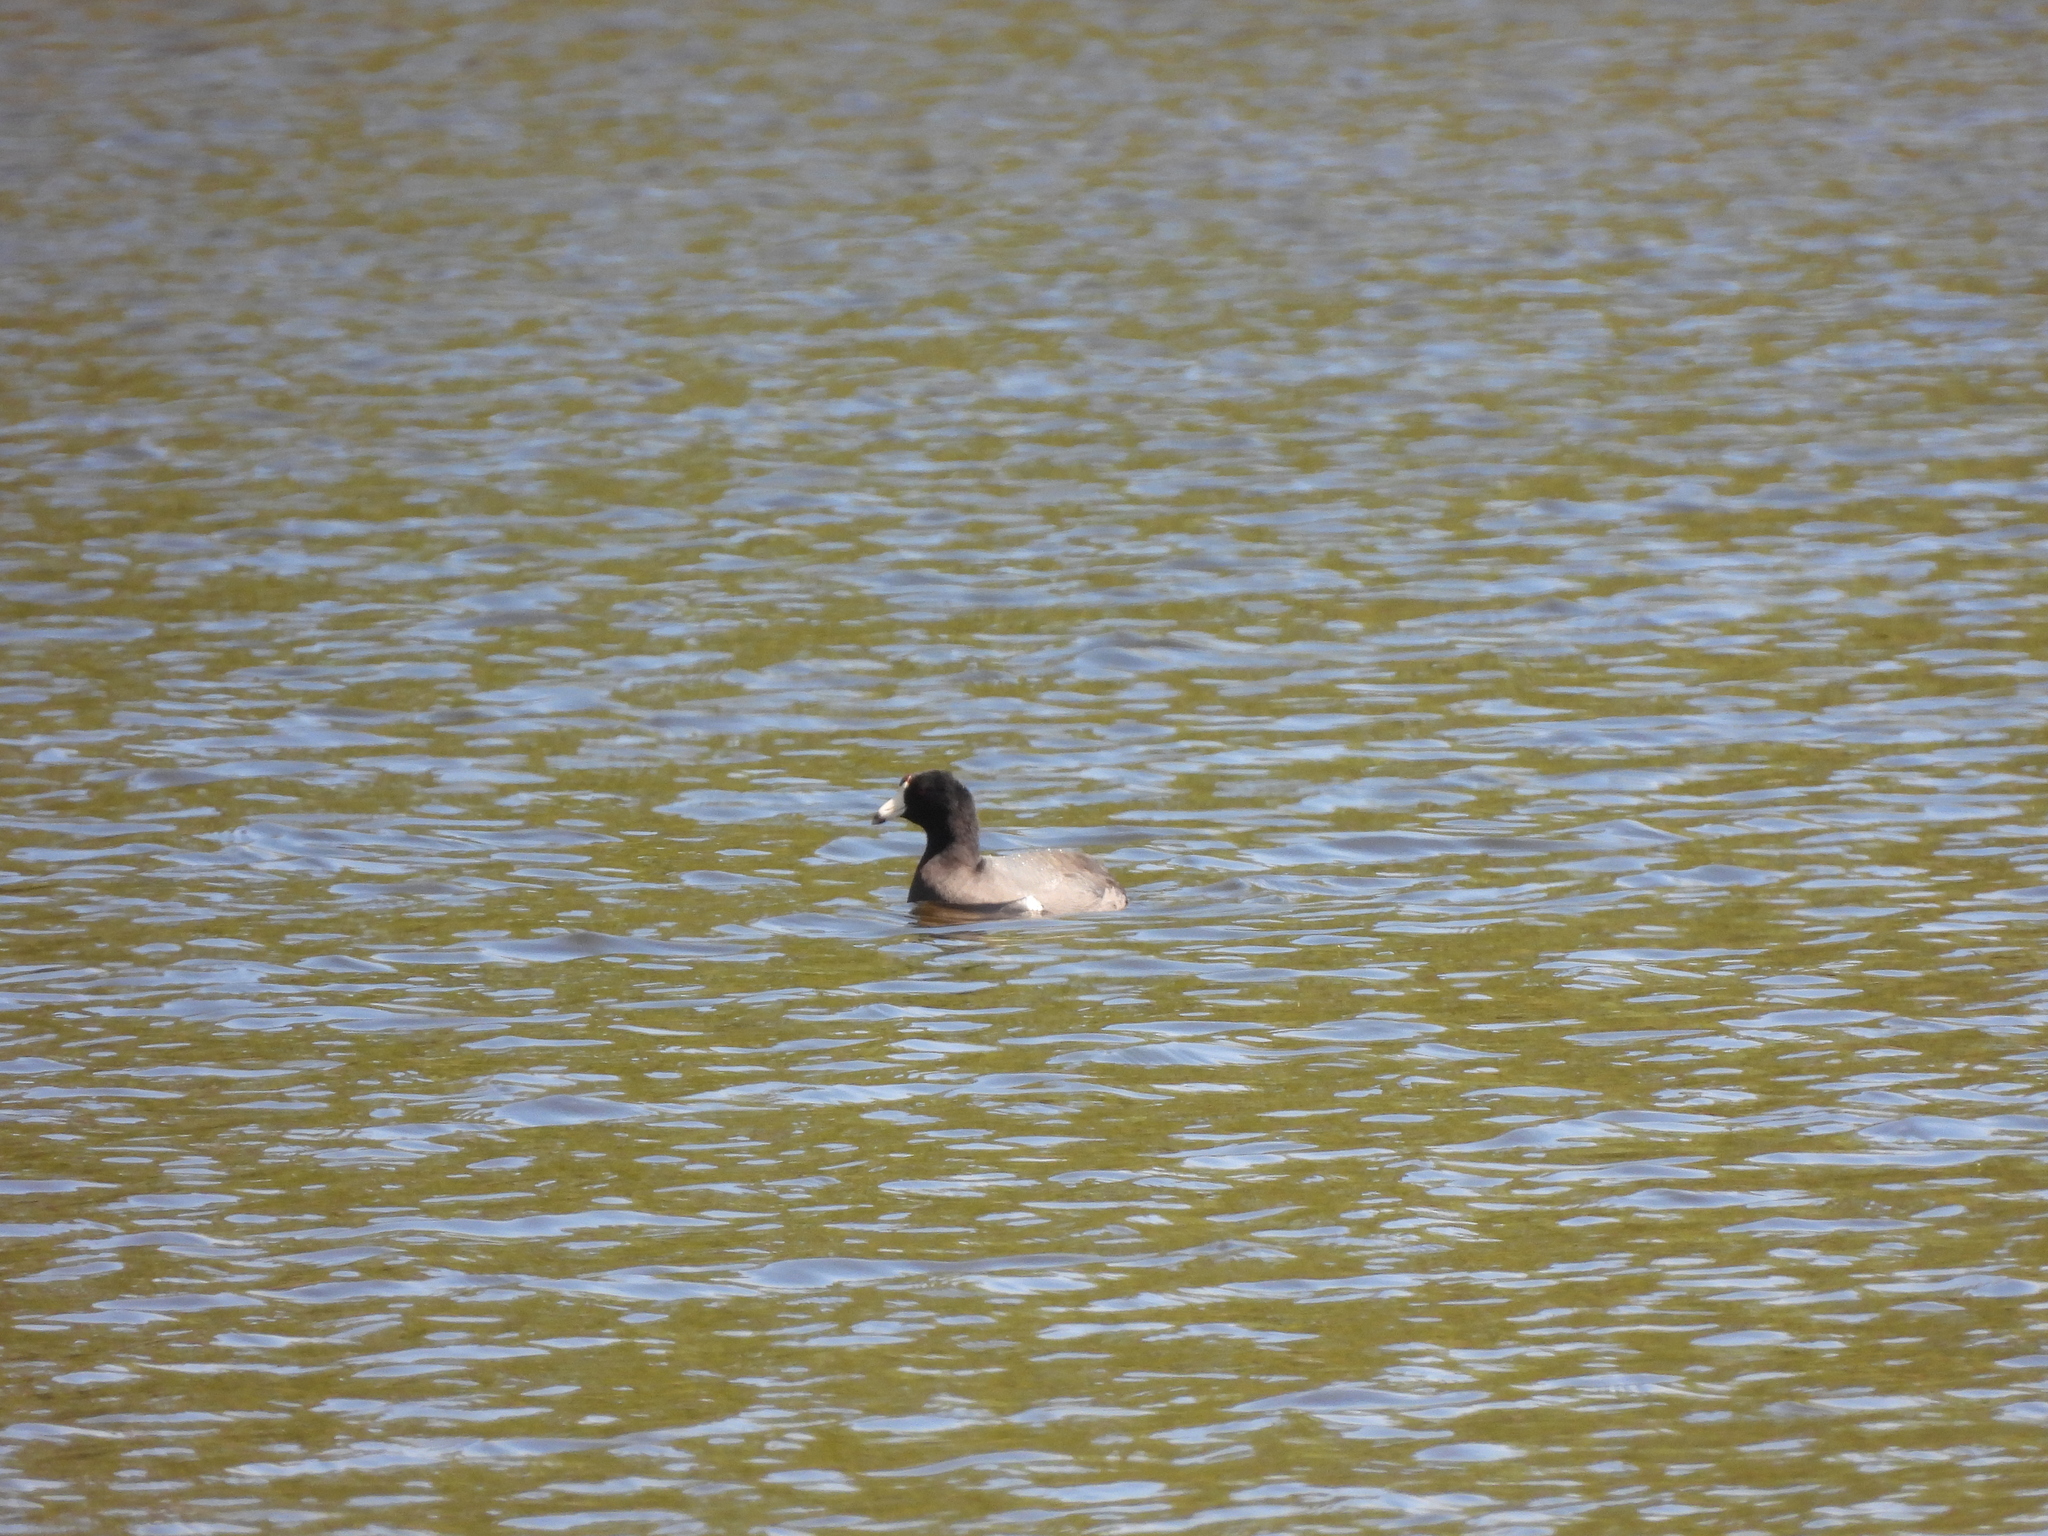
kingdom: Animalia
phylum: Chordata
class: Aves
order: Gruiformes
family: Rallidae
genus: Fulica
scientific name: Fulica americana
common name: American coot
